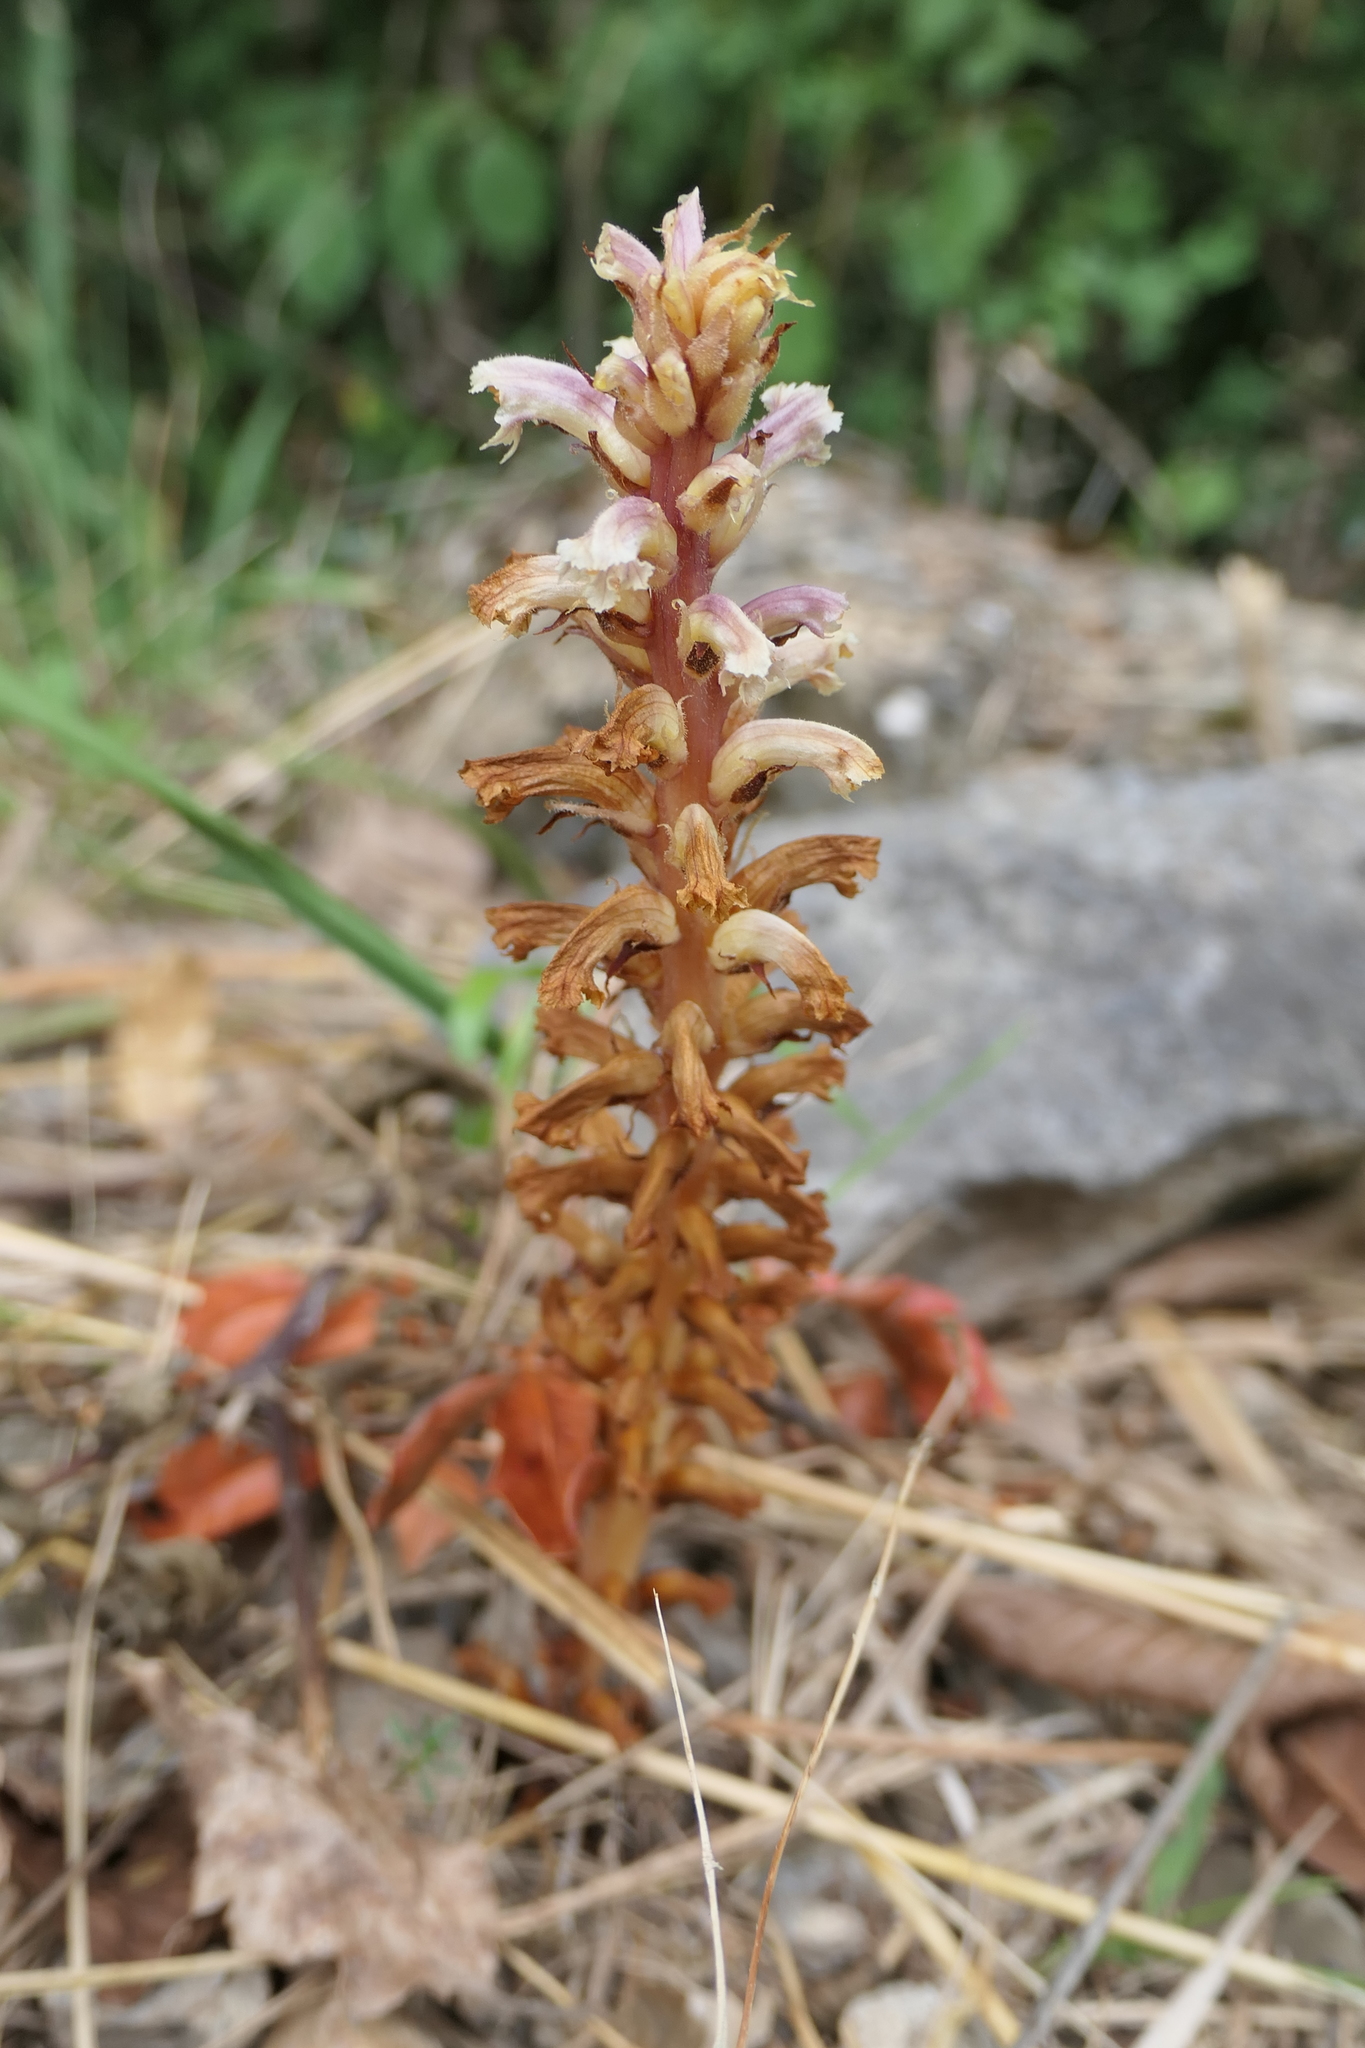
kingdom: Plantae
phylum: Tracheophyta
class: Magnoliopsida
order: Lamiales
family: Orobanchaceae
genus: Orobanche
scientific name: Orobanche hederae
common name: Ivy broomrape
